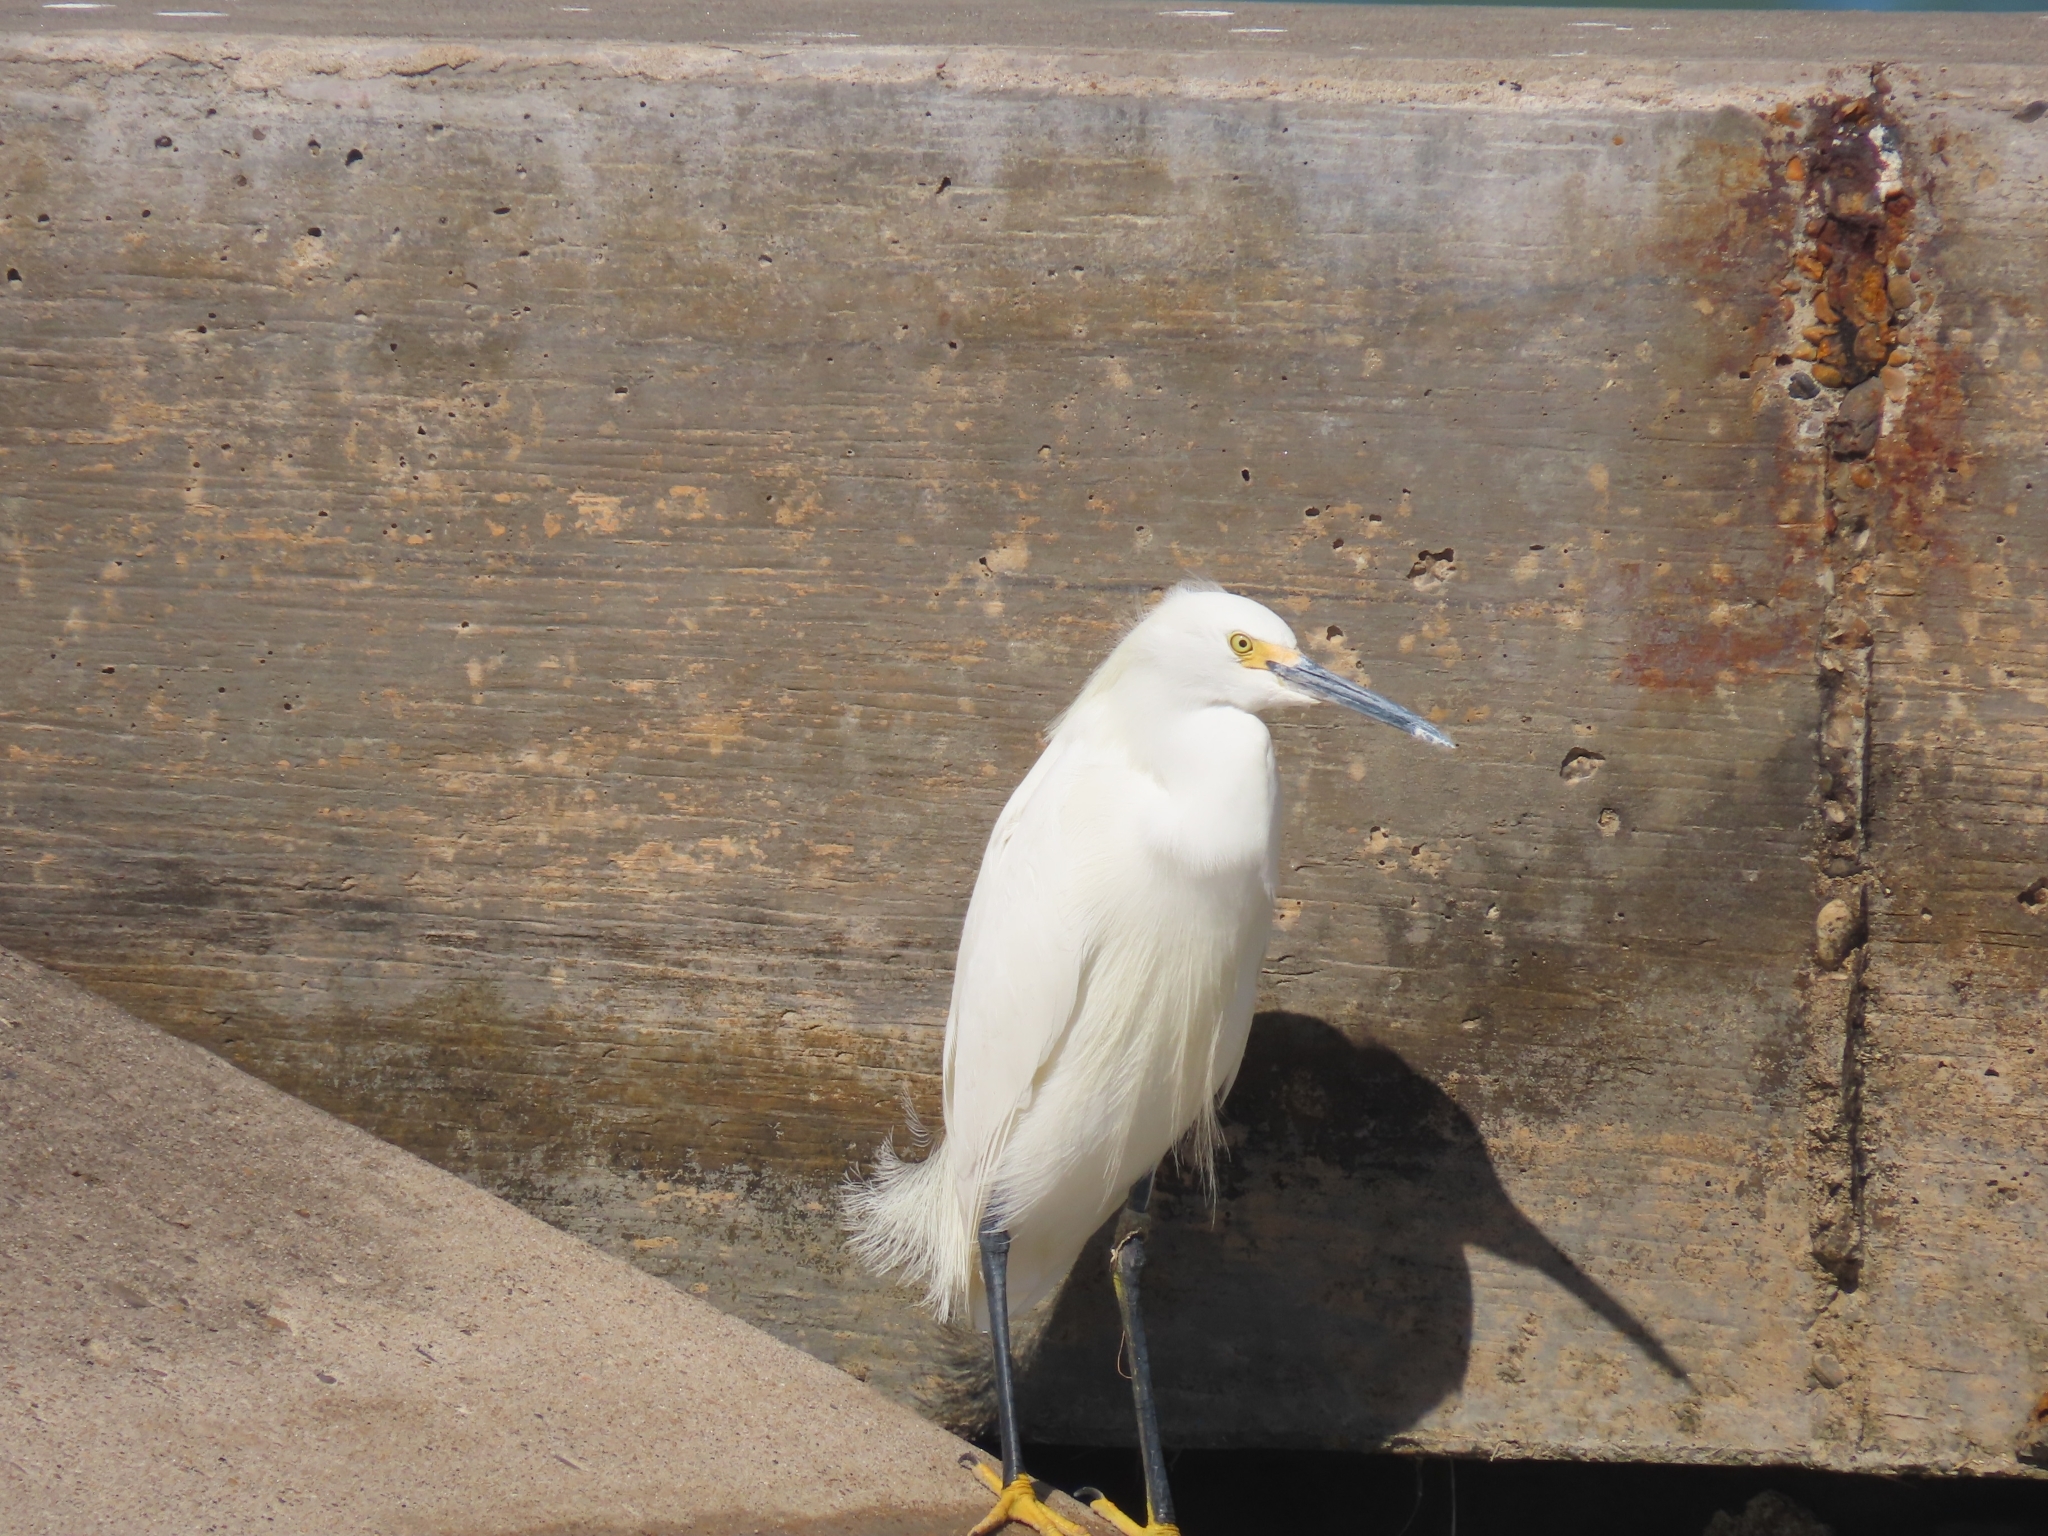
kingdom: Animalia
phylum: Chordata
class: Aves
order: Pelecaniformes
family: Ardeidae
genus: Egretta
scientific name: Egretta thula
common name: Snowy egret
